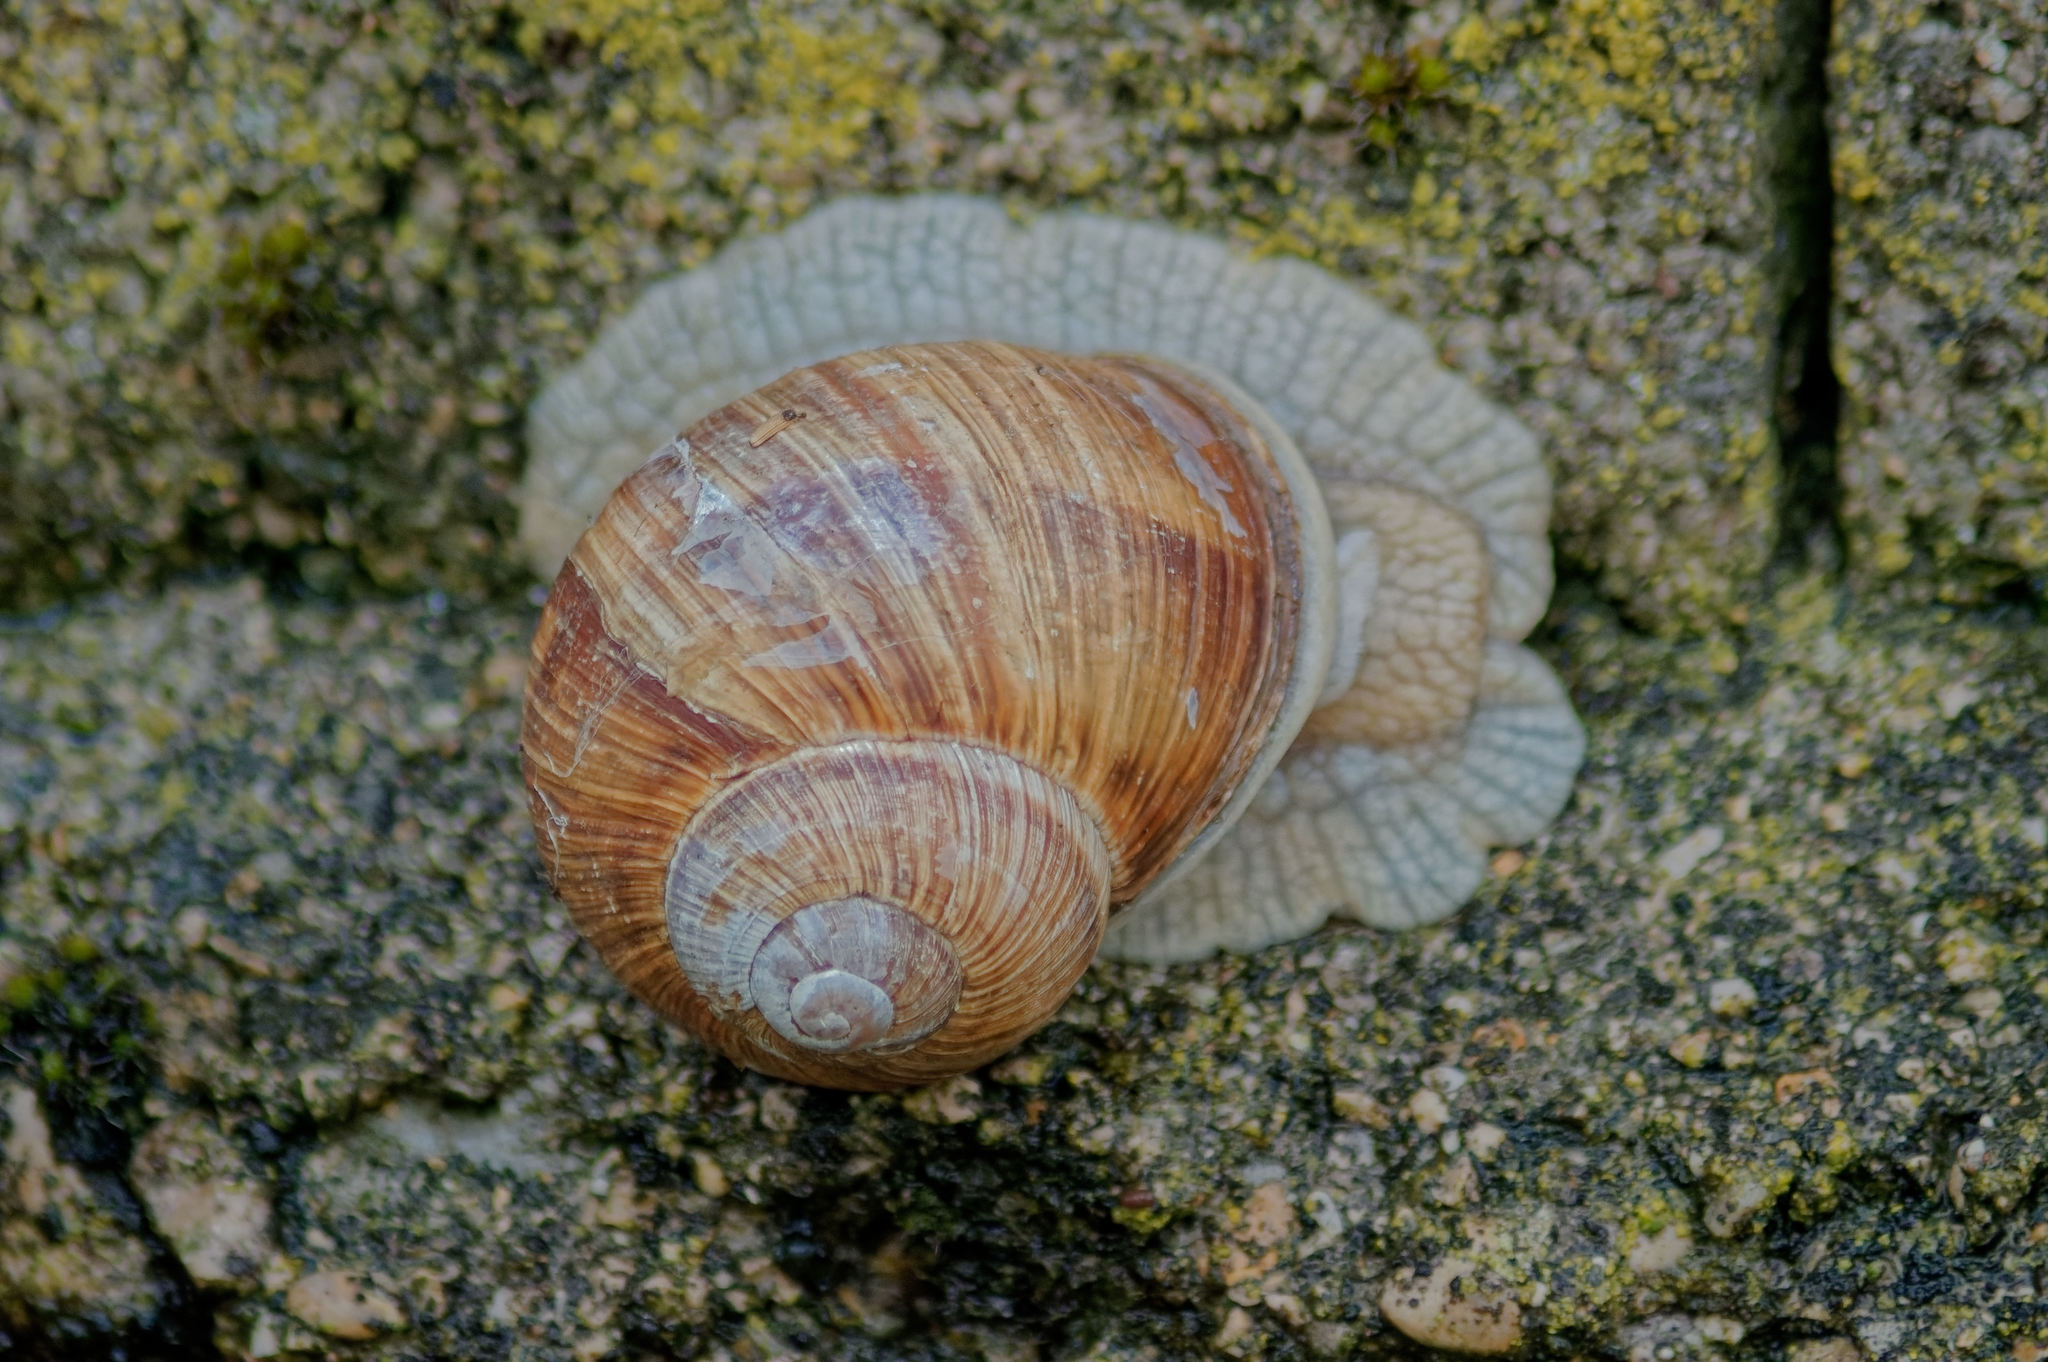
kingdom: Animalia
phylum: Mollusca
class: Gastropoda
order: Stylommatophora
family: Helicidae
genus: Helix
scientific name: Helix pomatia
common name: Roman snail
